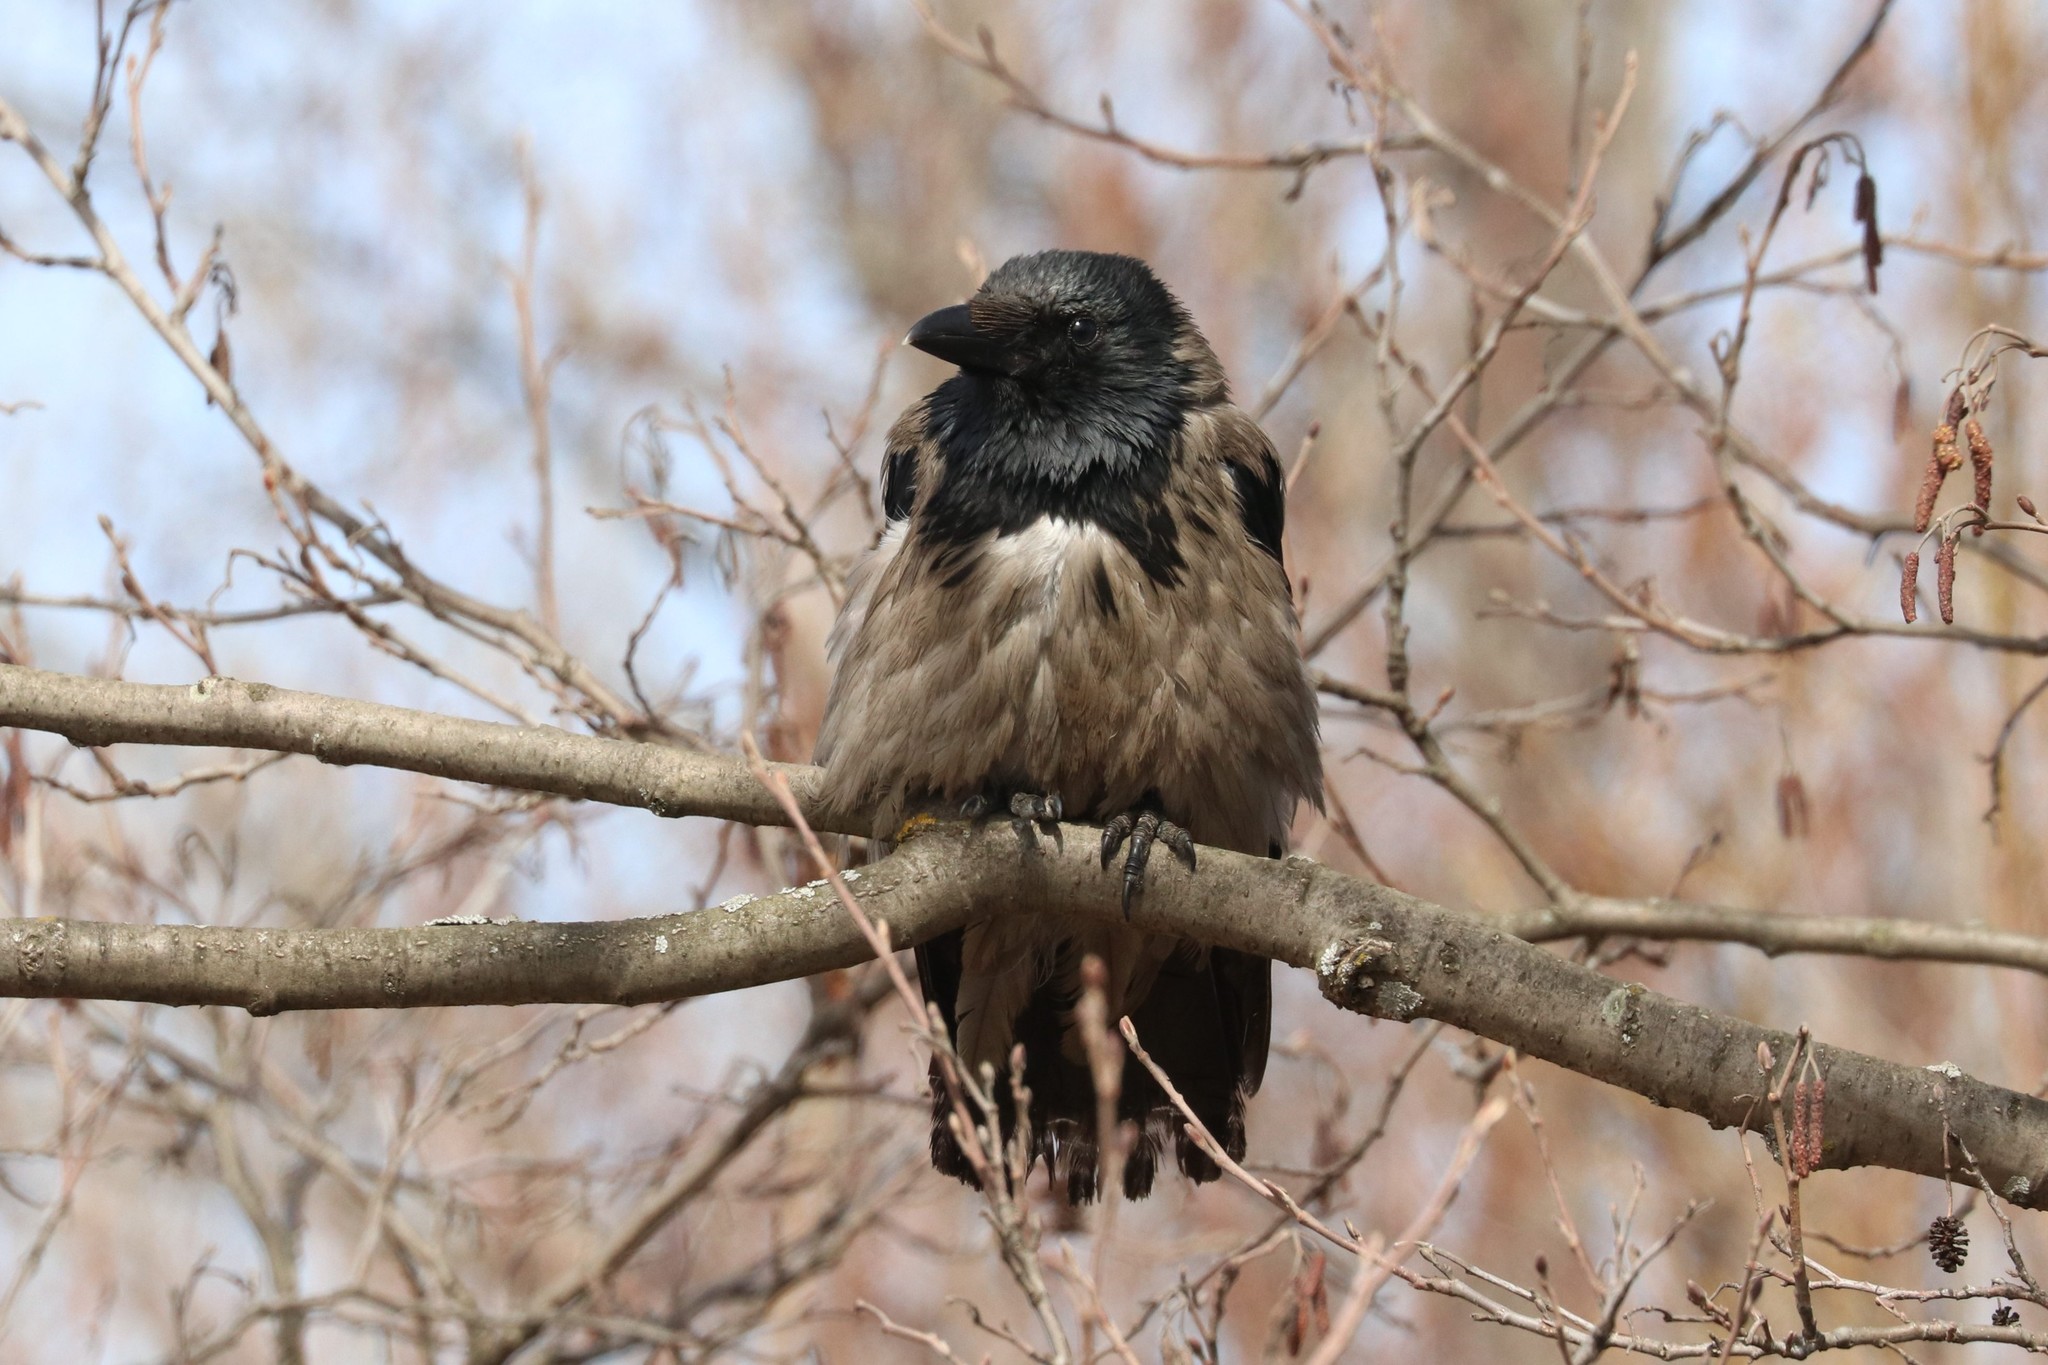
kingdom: Animalia
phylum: Chordata
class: Aves
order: Passeriformes
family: Corvidae
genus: Corvus
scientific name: Corvus cornix
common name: Hooded crow
